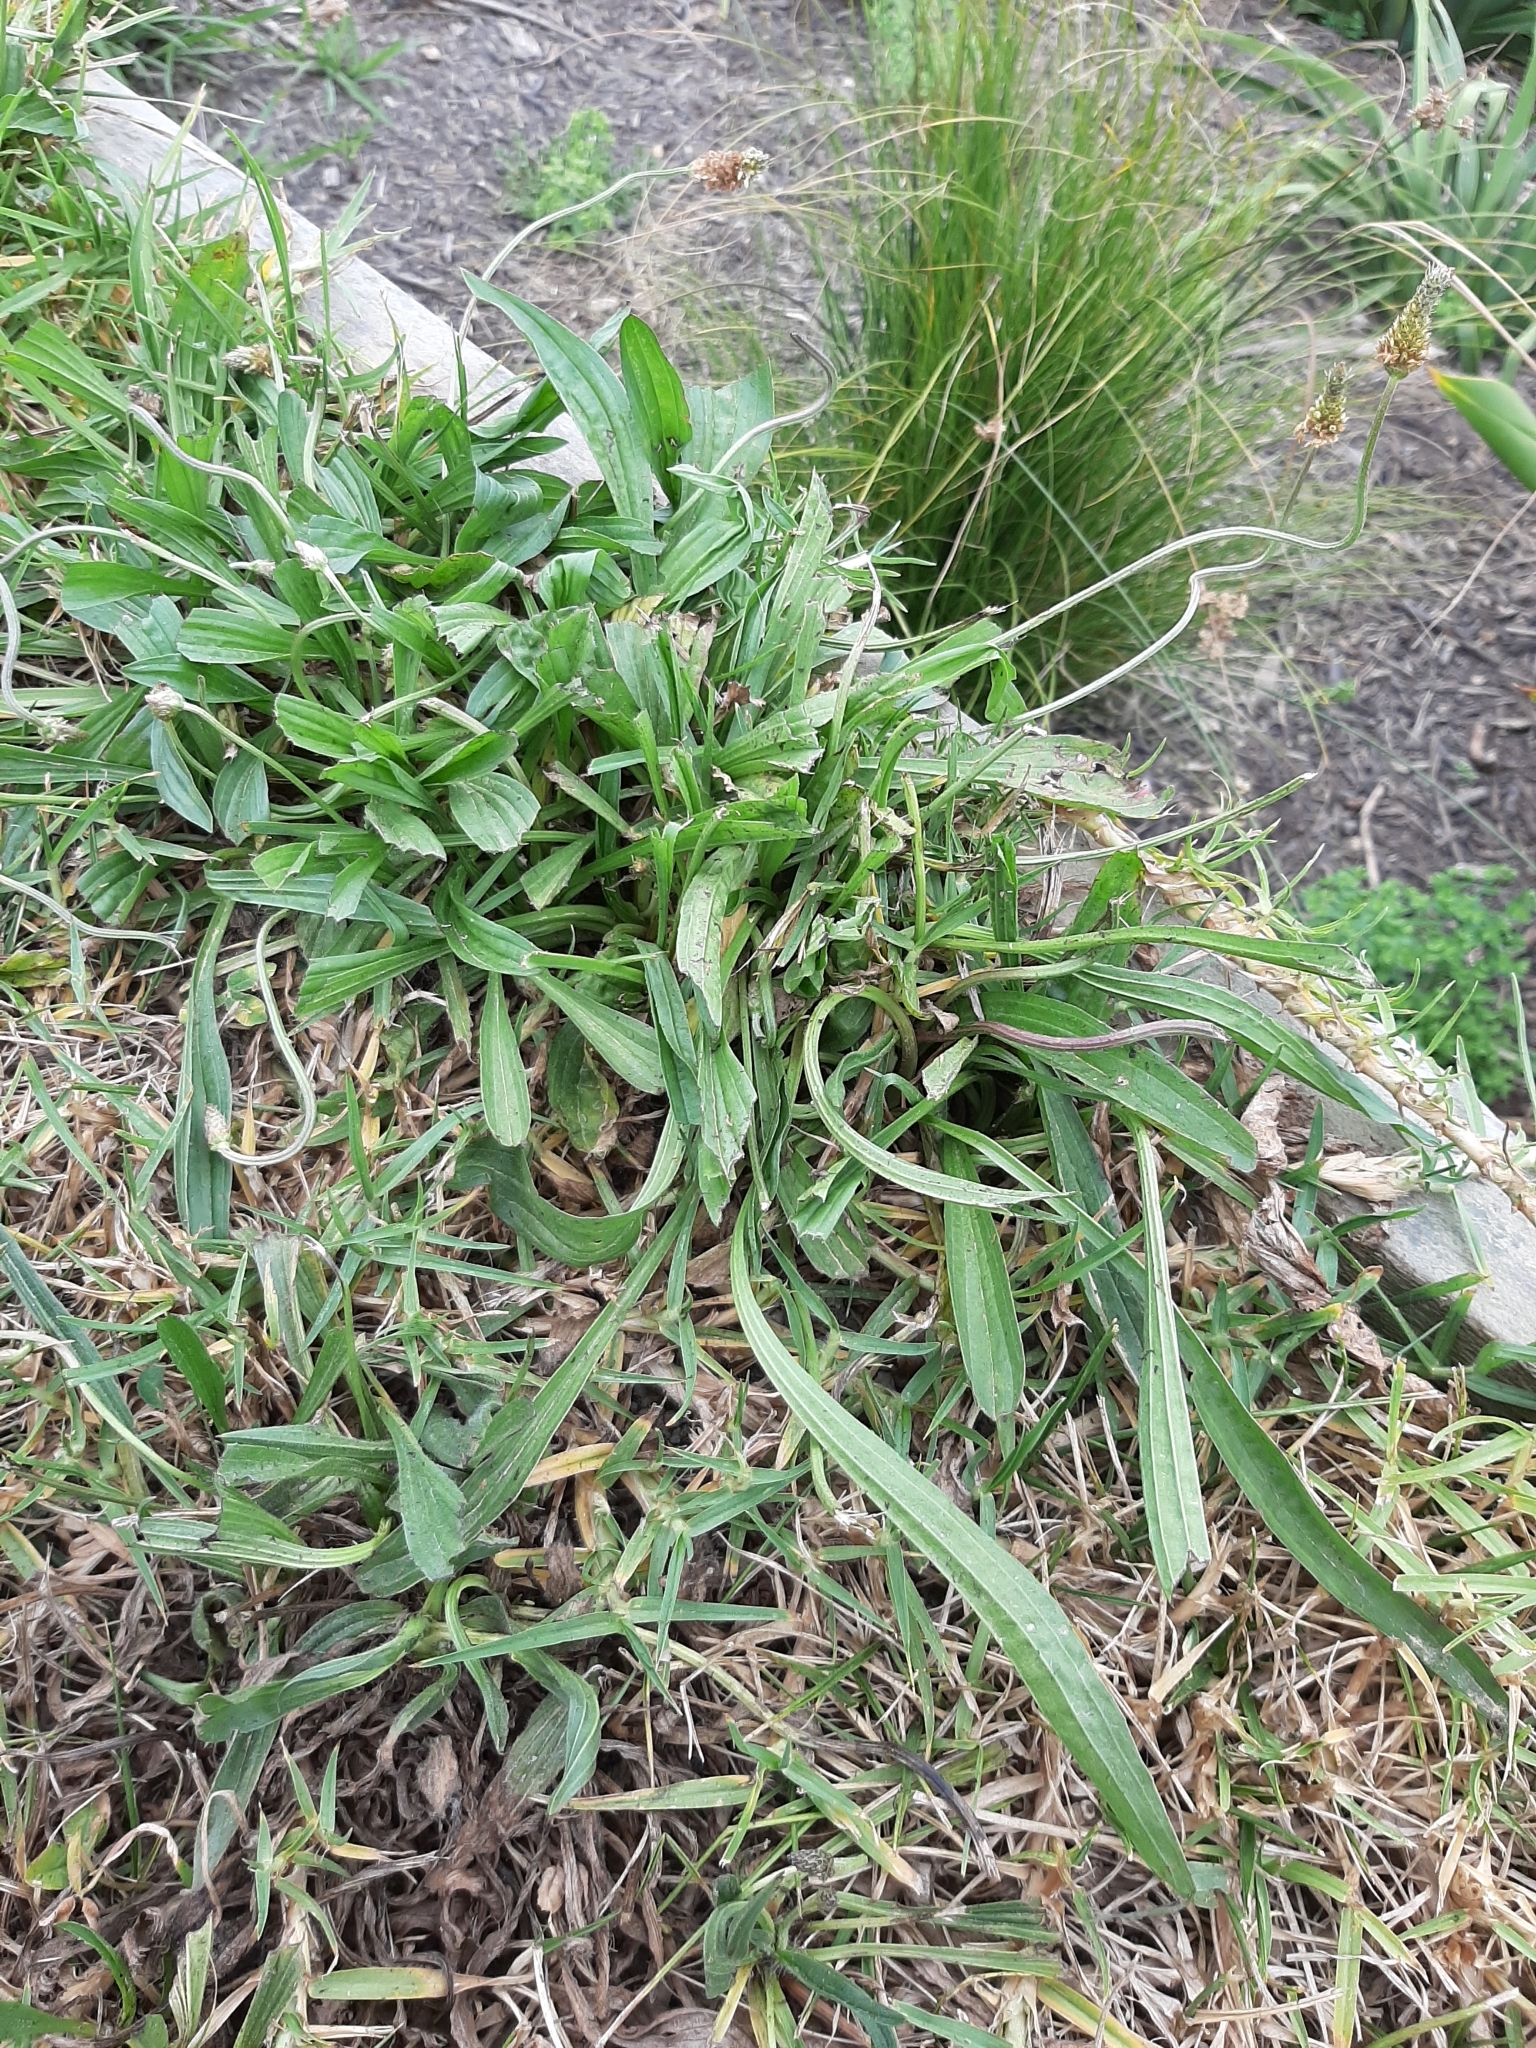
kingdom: Plantae
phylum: Tracheophyta
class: Magnoliopsida
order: Lamiales
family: Plantaginaceae
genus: Plantago
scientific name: Plantago lanceolata
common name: Ribwort plantain
